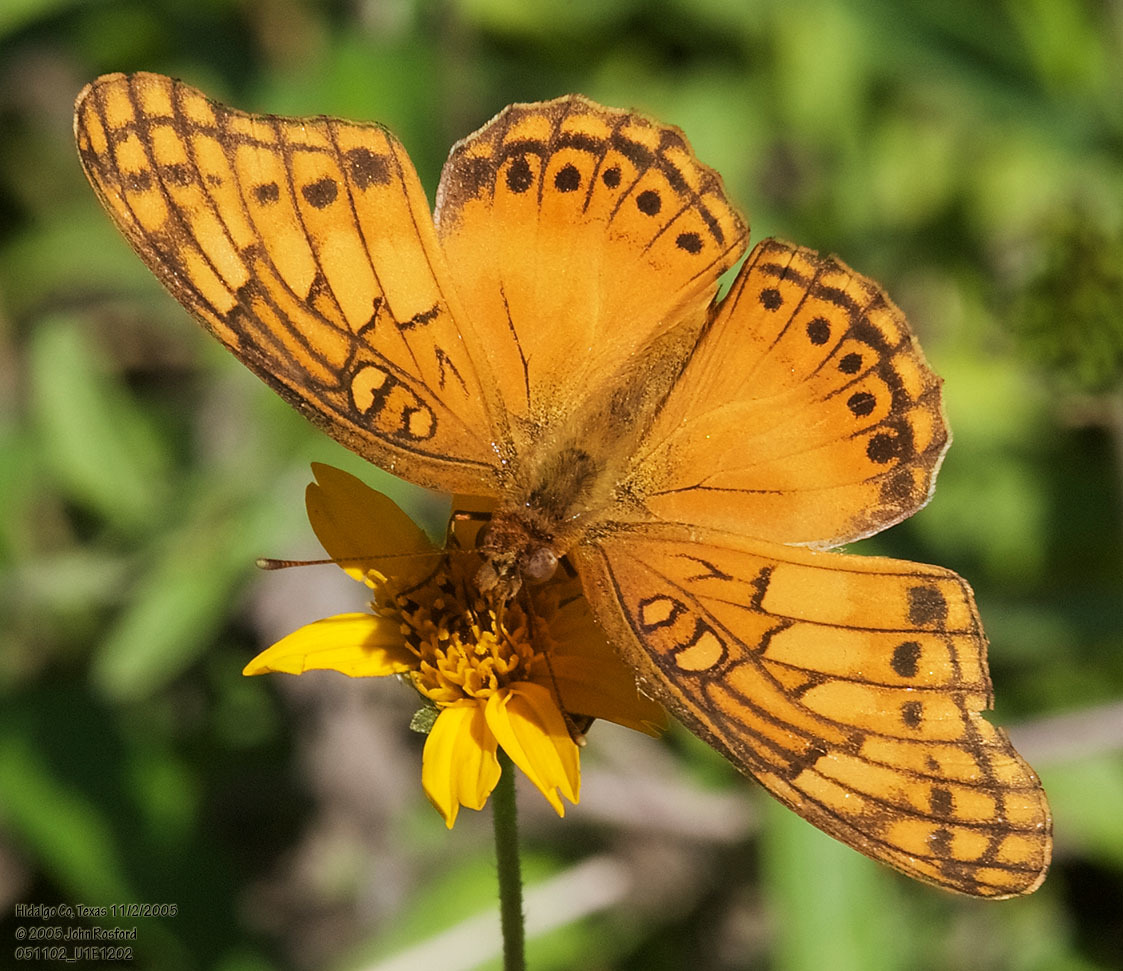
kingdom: Animalia
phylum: Arthropoda
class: Insecta
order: Lepidoptera
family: Nymphalidae
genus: Euptoieta
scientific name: Euptoieta hegesia
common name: Mexican fritillary
